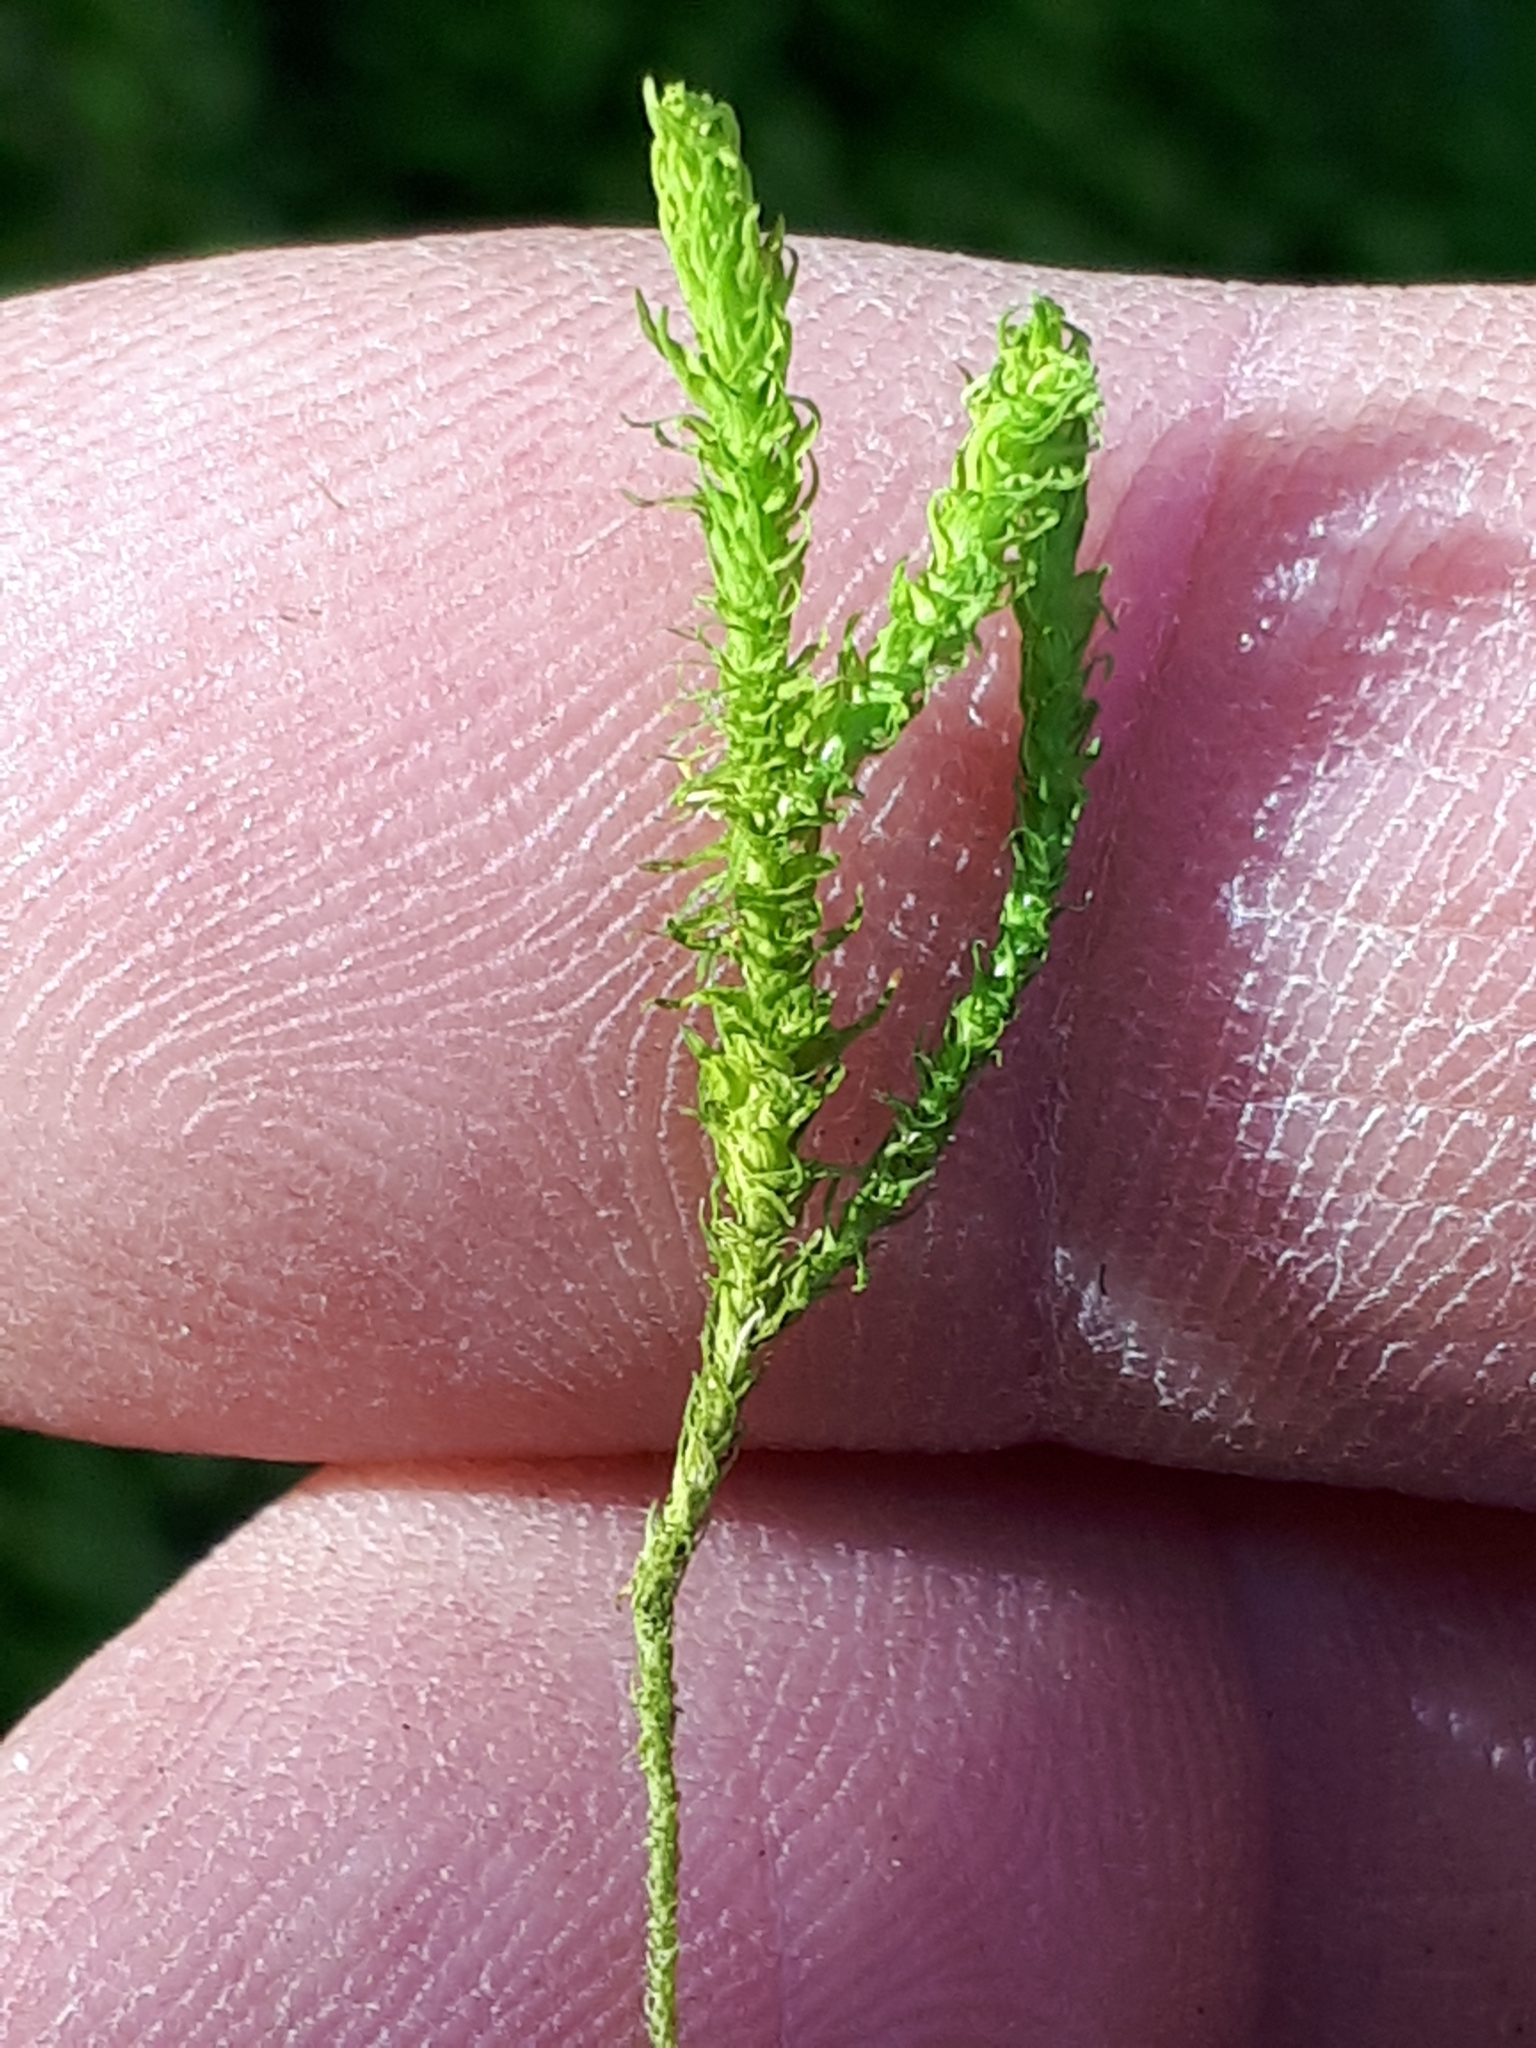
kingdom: Plantae
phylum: Bryophyta
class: Bryopsida
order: Hypnales
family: Anomodontaceae
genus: Anomodon
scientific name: Anomodon viticulosus
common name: Tall anomodon
